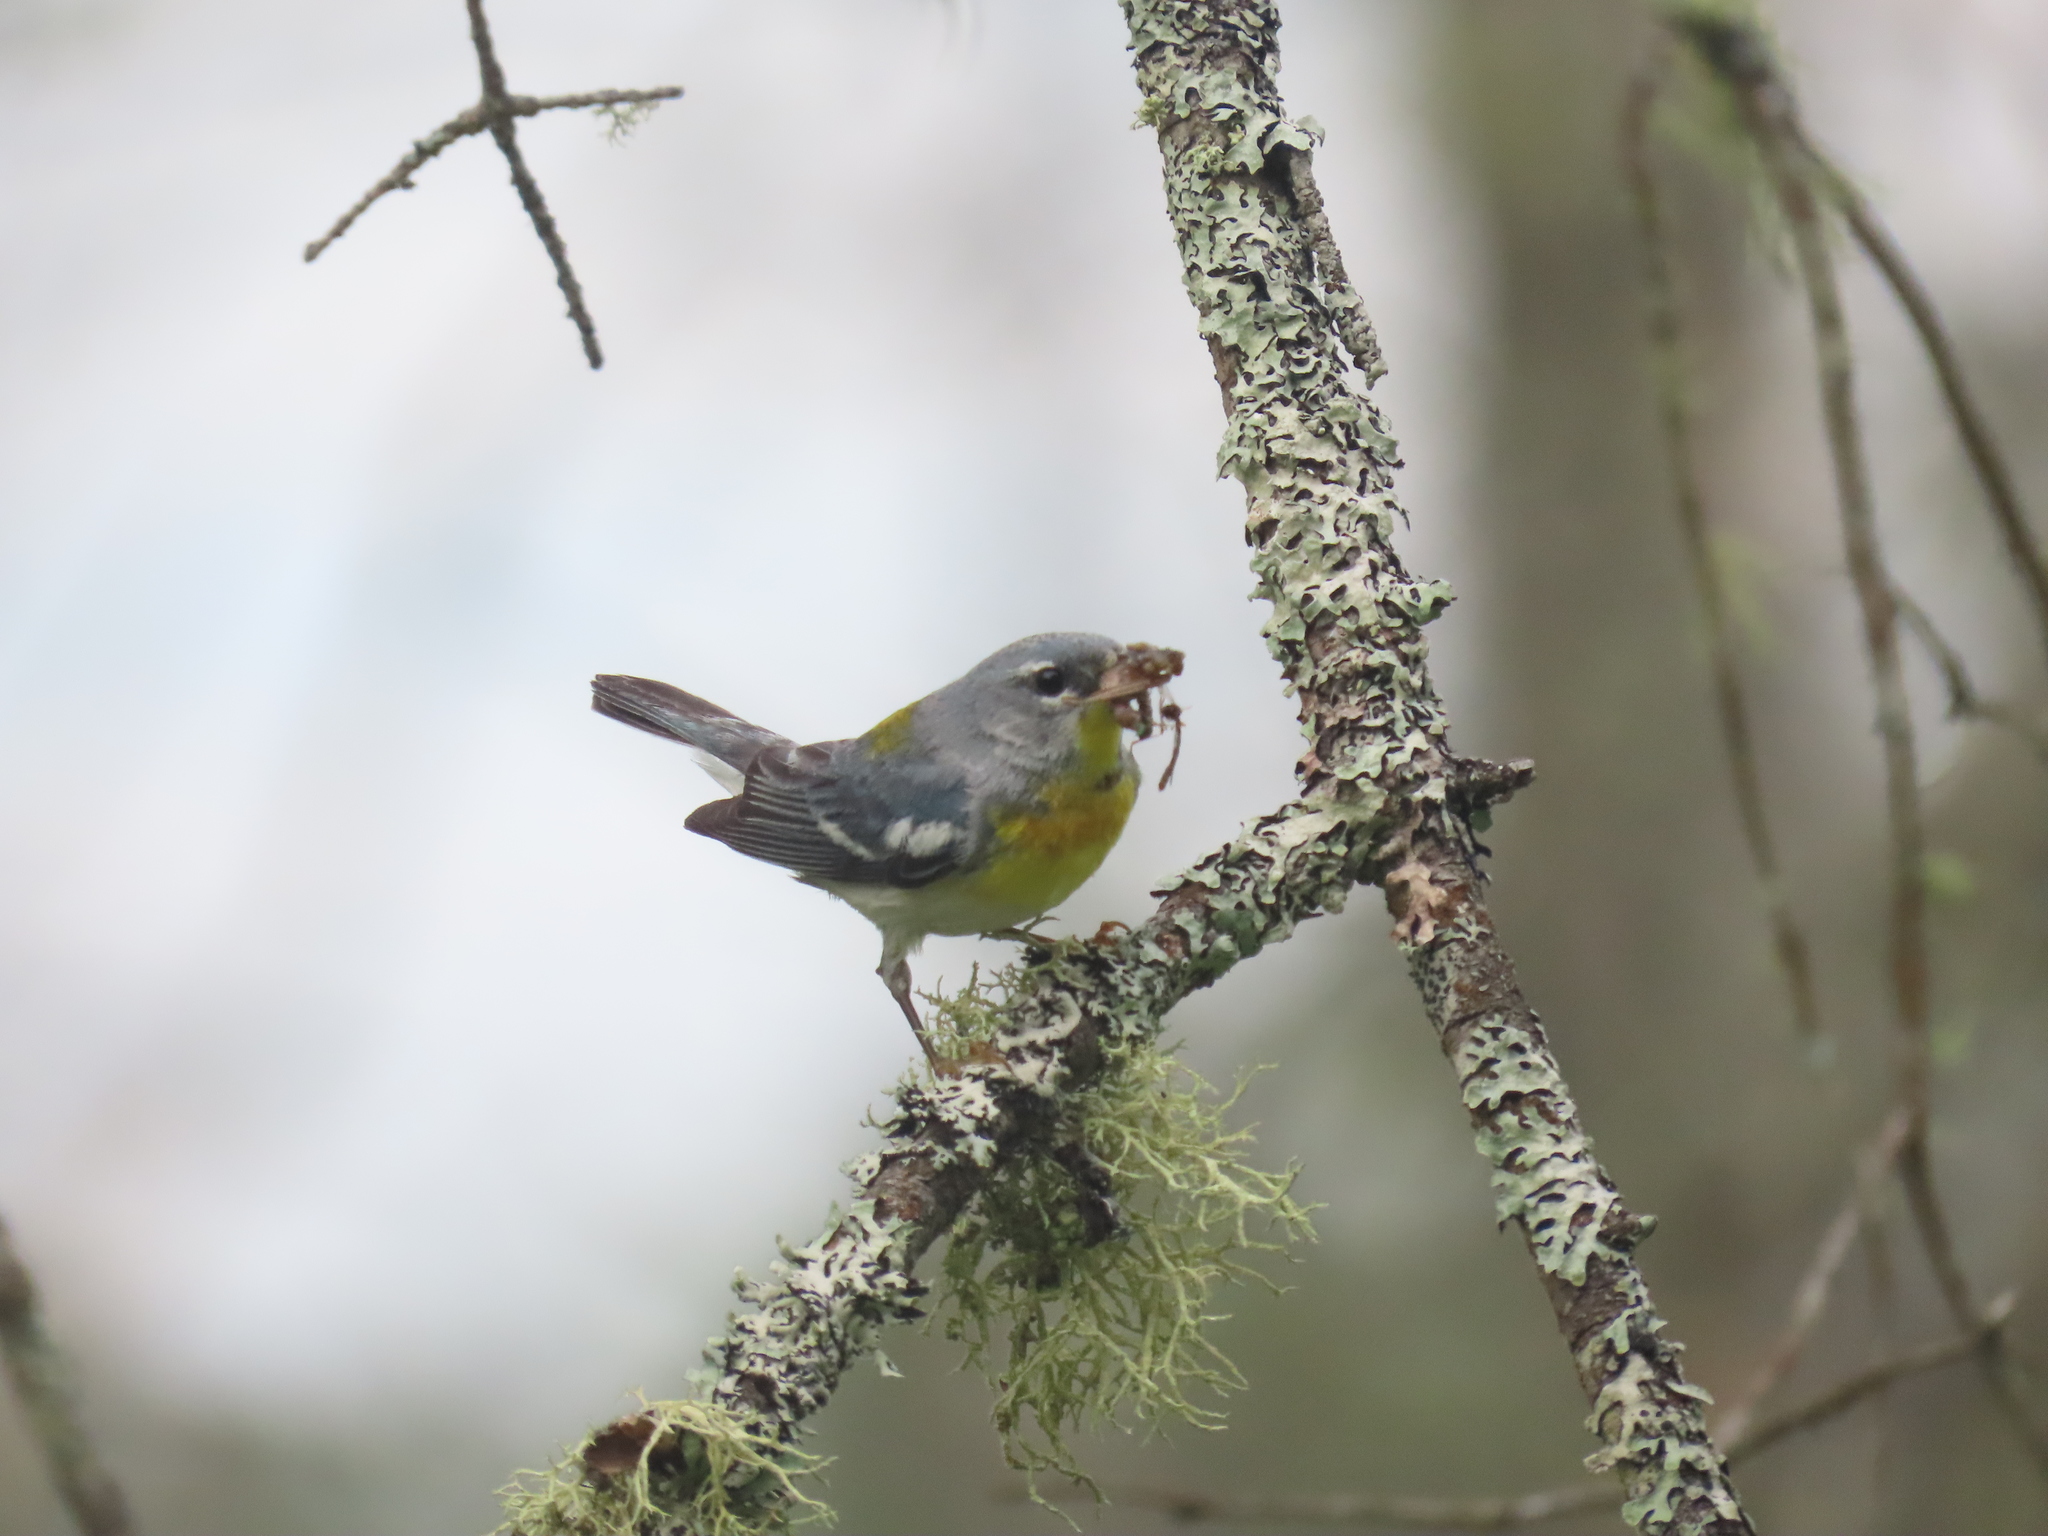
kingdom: Animalia
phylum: Chordata
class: Aves
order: Passeriformes
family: Parulidae
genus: Setophaga
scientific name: Setophaga americana
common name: Northern parula
